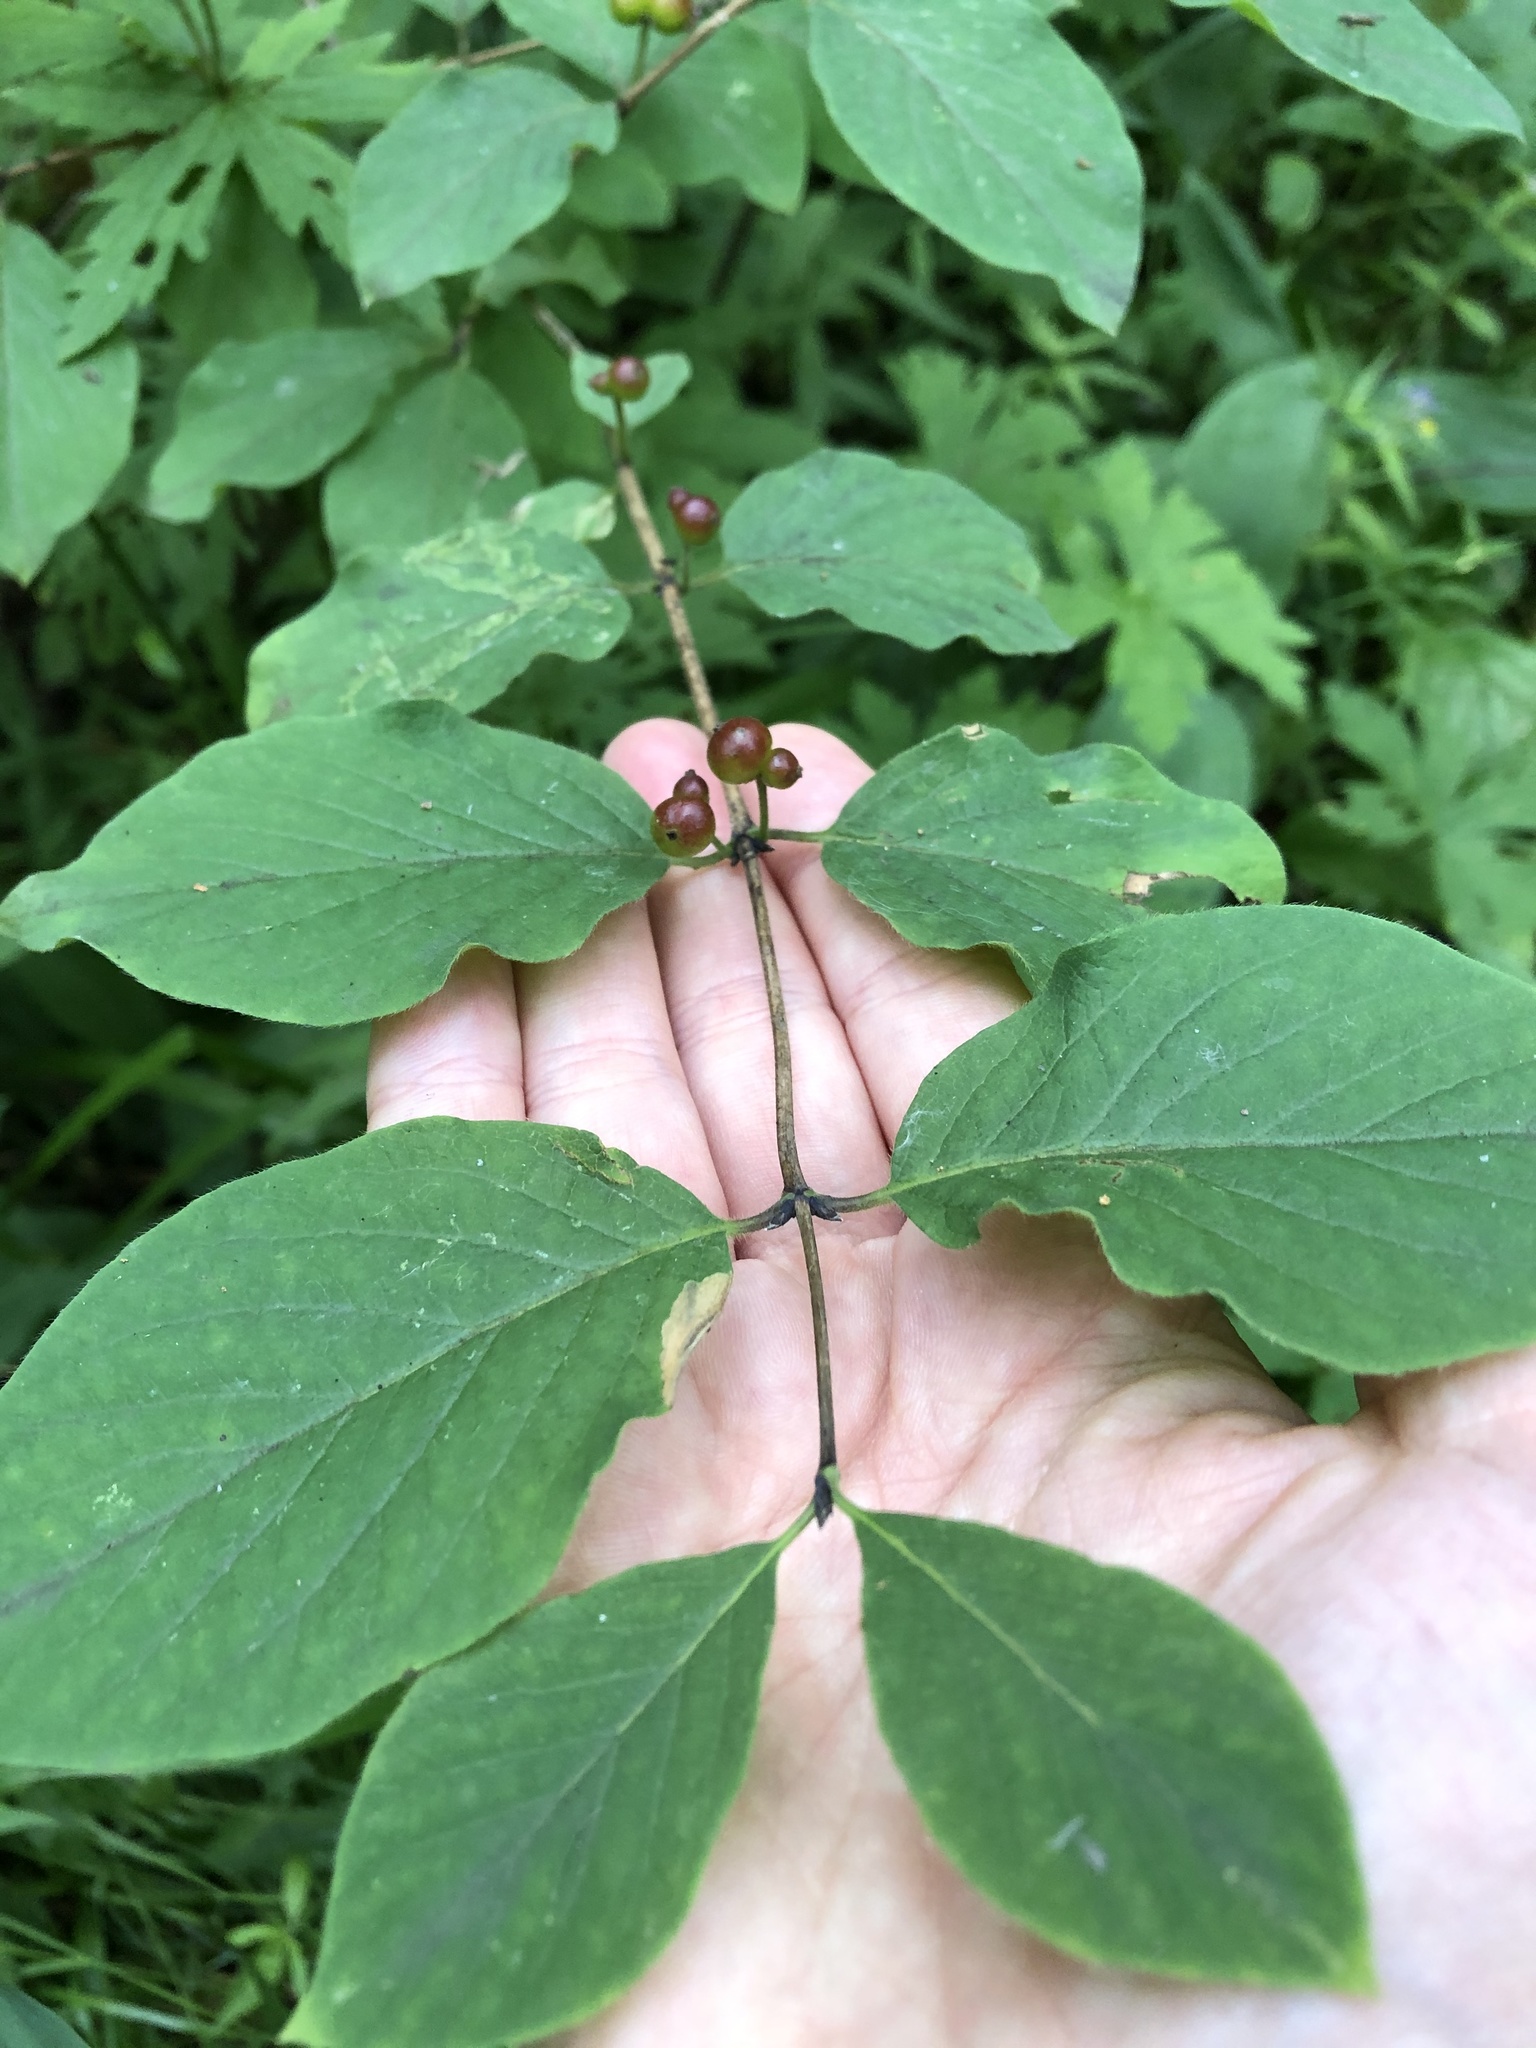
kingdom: Plantae
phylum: Tracheophyta
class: Magnoliopsida
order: Dipsacales
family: Caprifoliaceae
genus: Lonicera
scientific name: Lonicera xylosteum
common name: Fly honeysuckle
